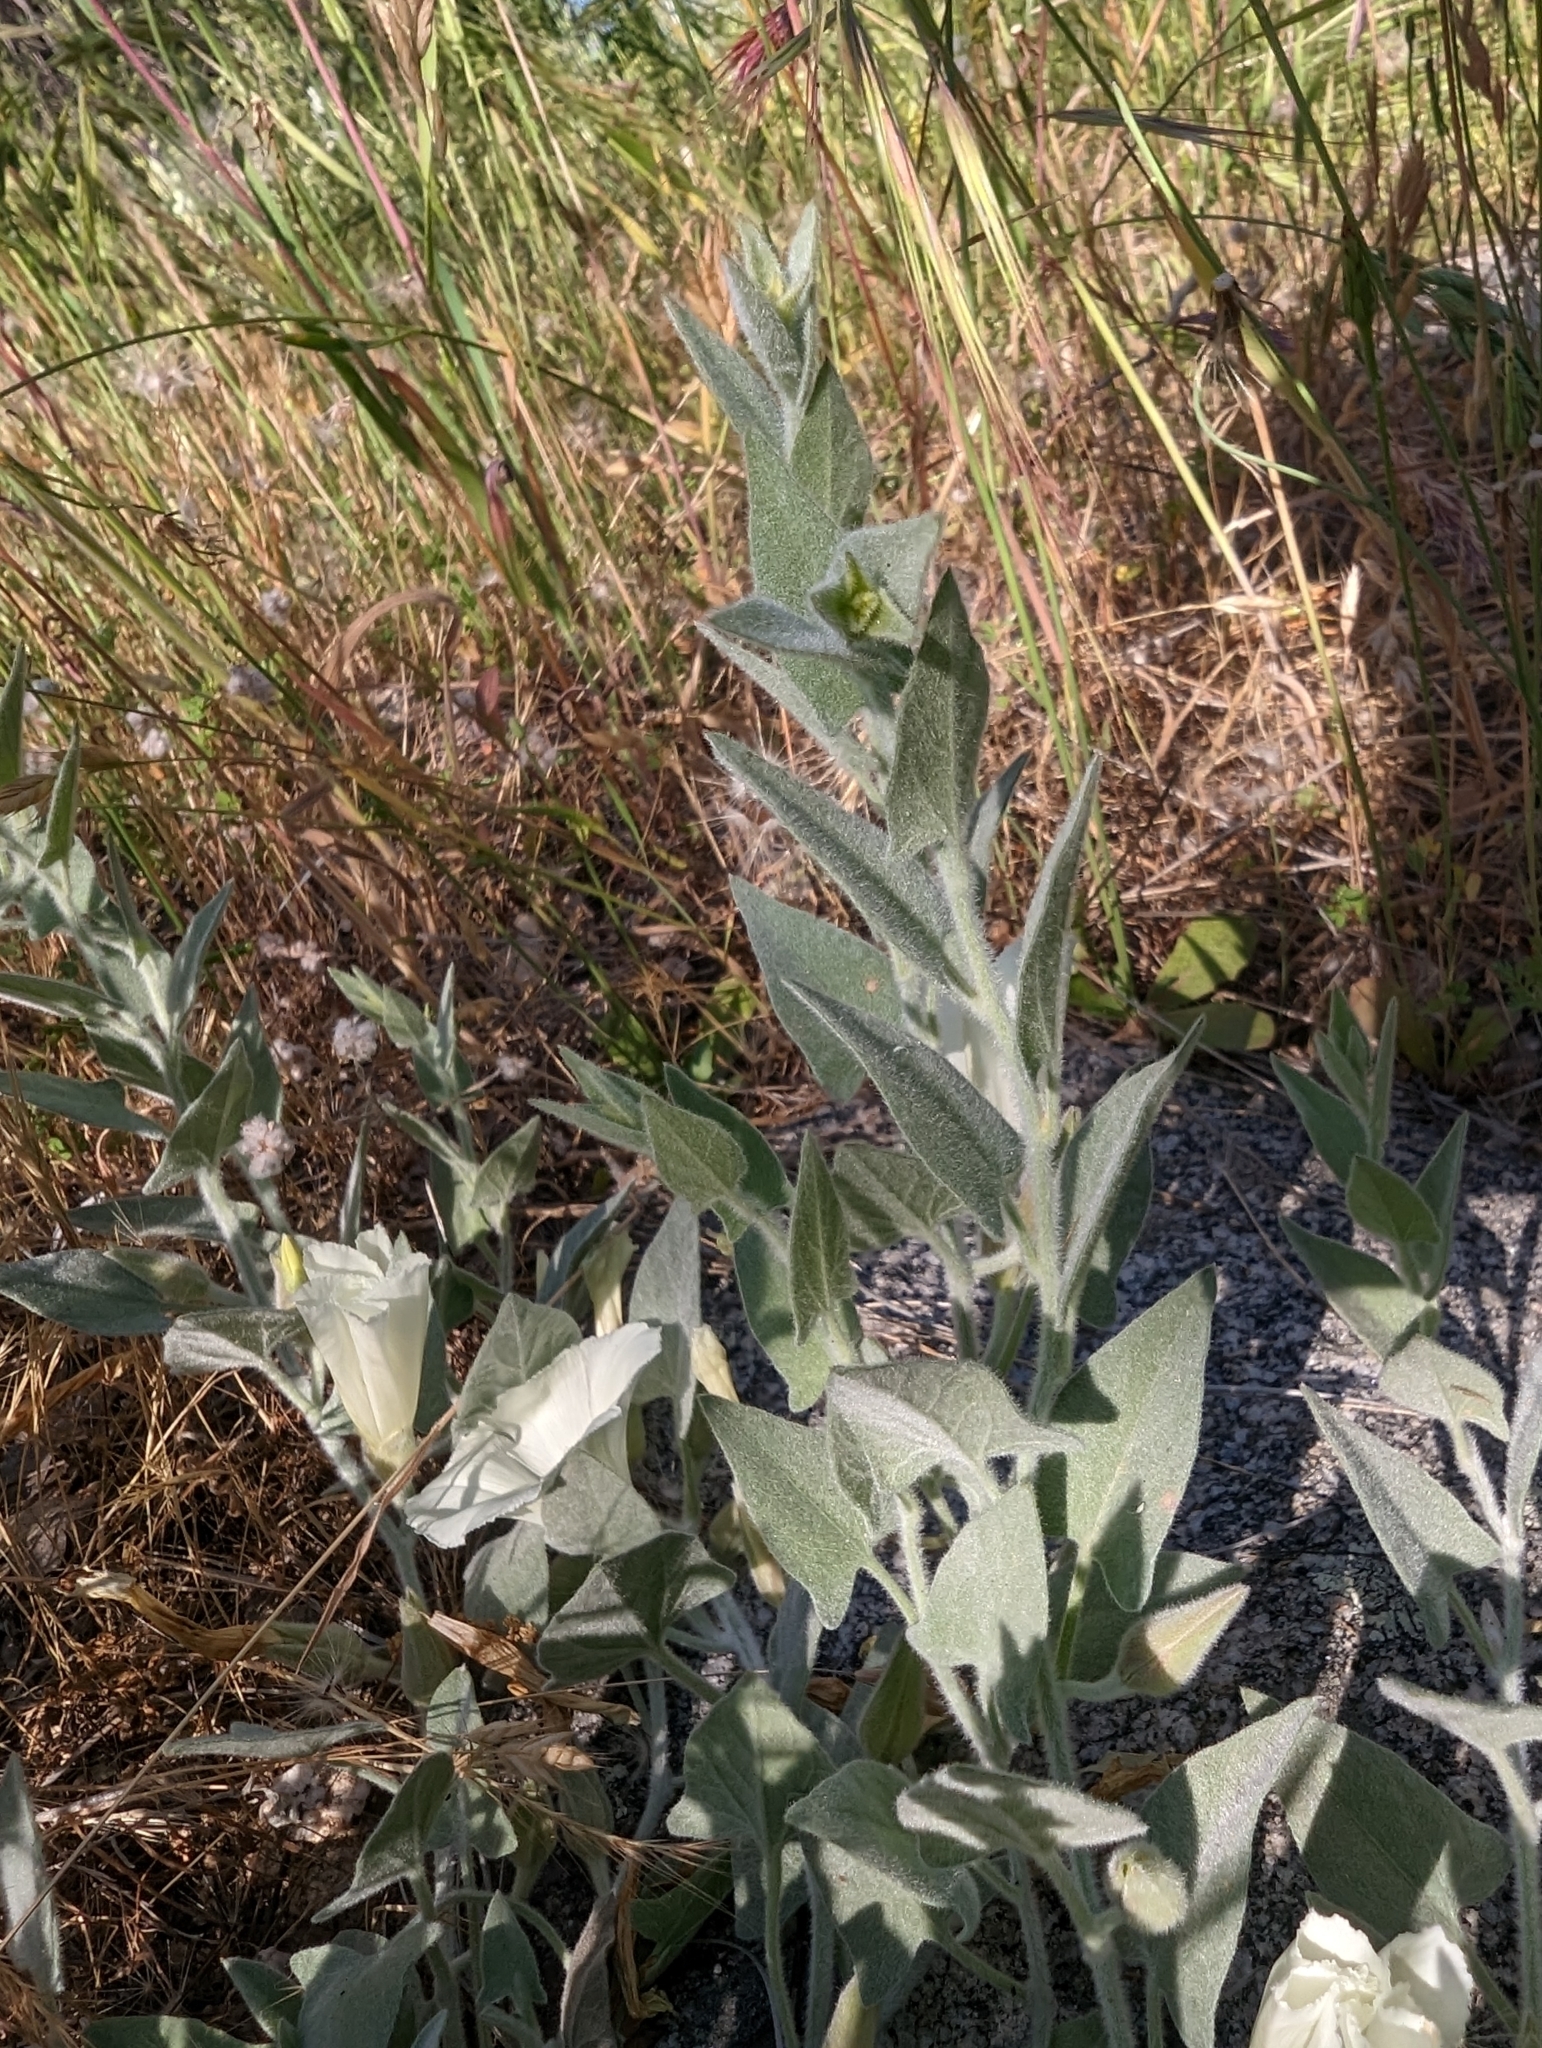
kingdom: Plantae
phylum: Tracheophyta
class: Magnoliopsida
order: Solanales
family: Convolvulaceae
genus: Calystegia
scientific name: Calystegia malacophylla
